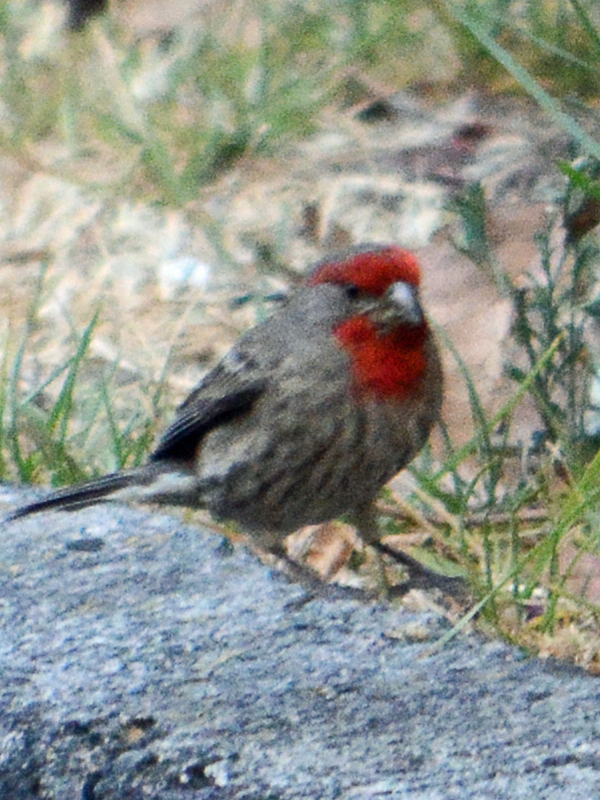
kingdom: Animalia
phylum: Chordata
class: Aves
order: Passeriformes
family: Fringillidae
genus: Haemorhous
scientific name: Haemorhous mexicanus
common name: House finch
